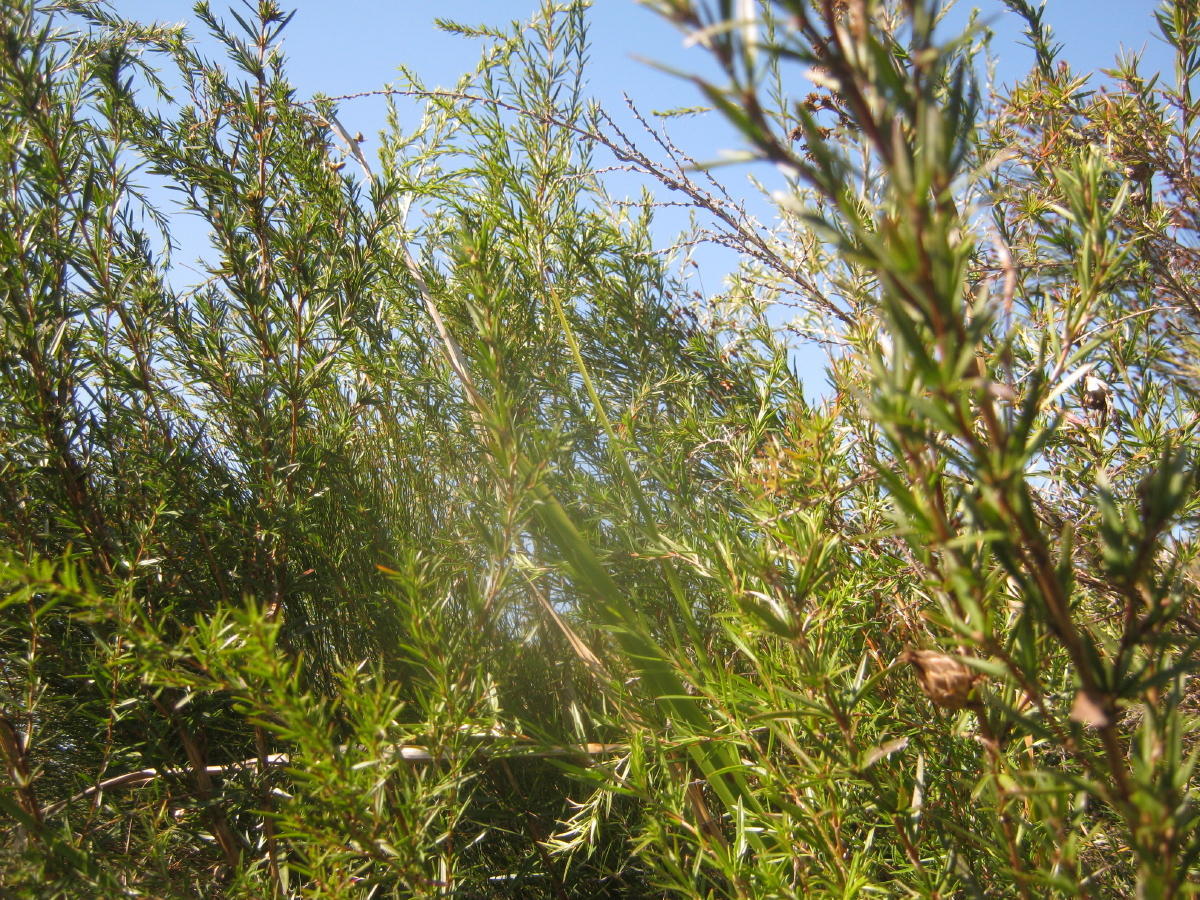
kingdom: Plantae
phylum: Tracheophyta
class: Magnoliopsida
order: Rosales
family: Rosaceae
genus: Cliffortia
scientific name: Cliffortia strobilifera
